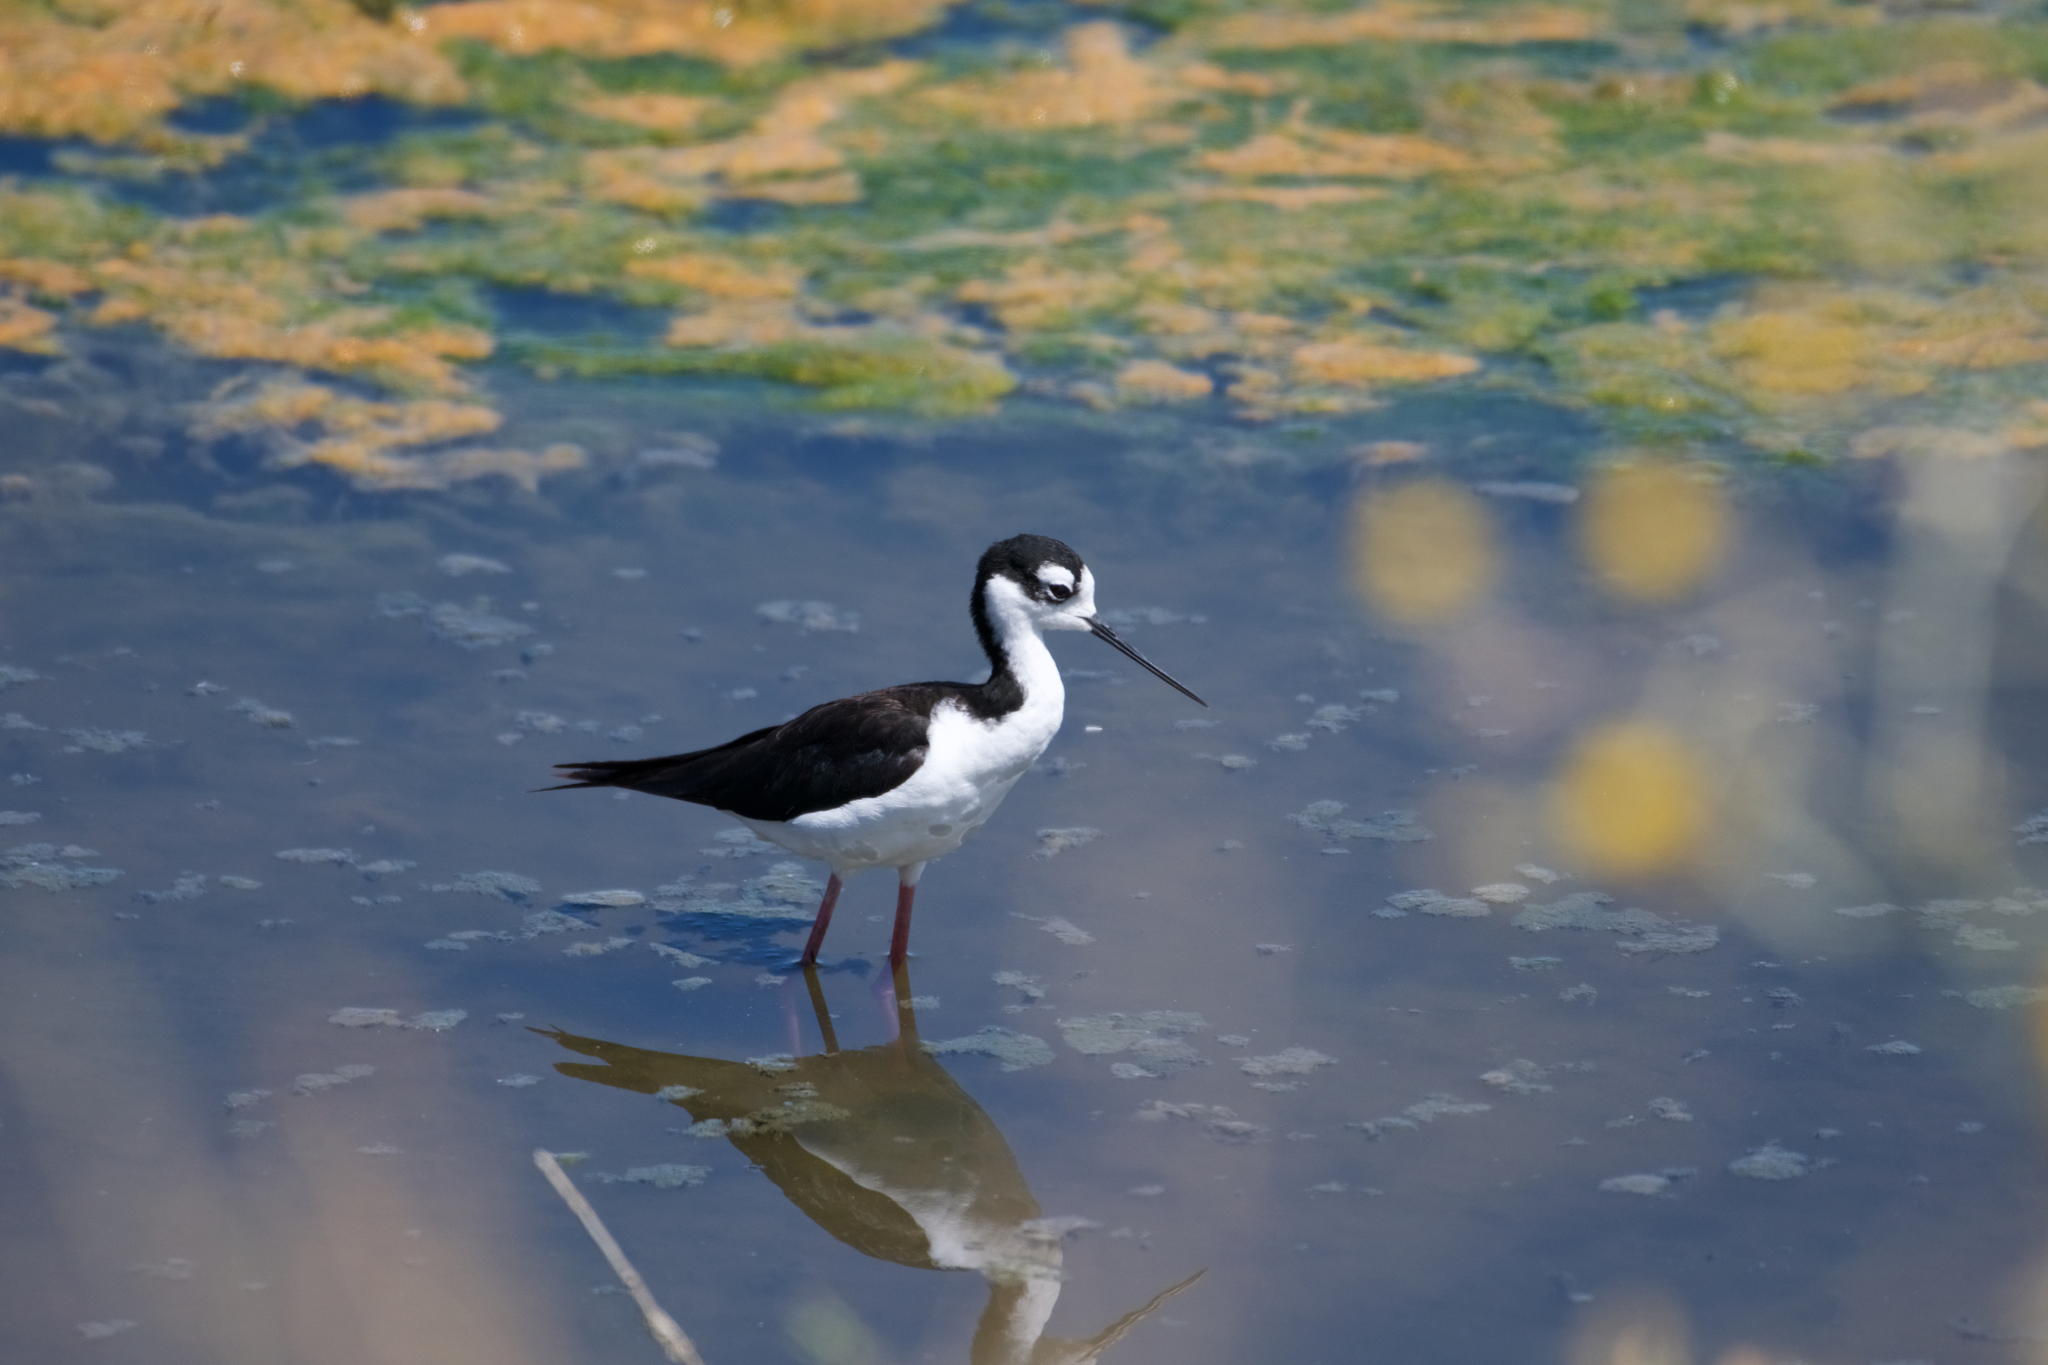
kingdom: Animalia
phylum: Chordata
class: Aves
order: Charadriiformes
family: Recurvirostridae
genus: Himantopus
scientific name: Himantopus mexicanus
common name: Black-necked stilt
